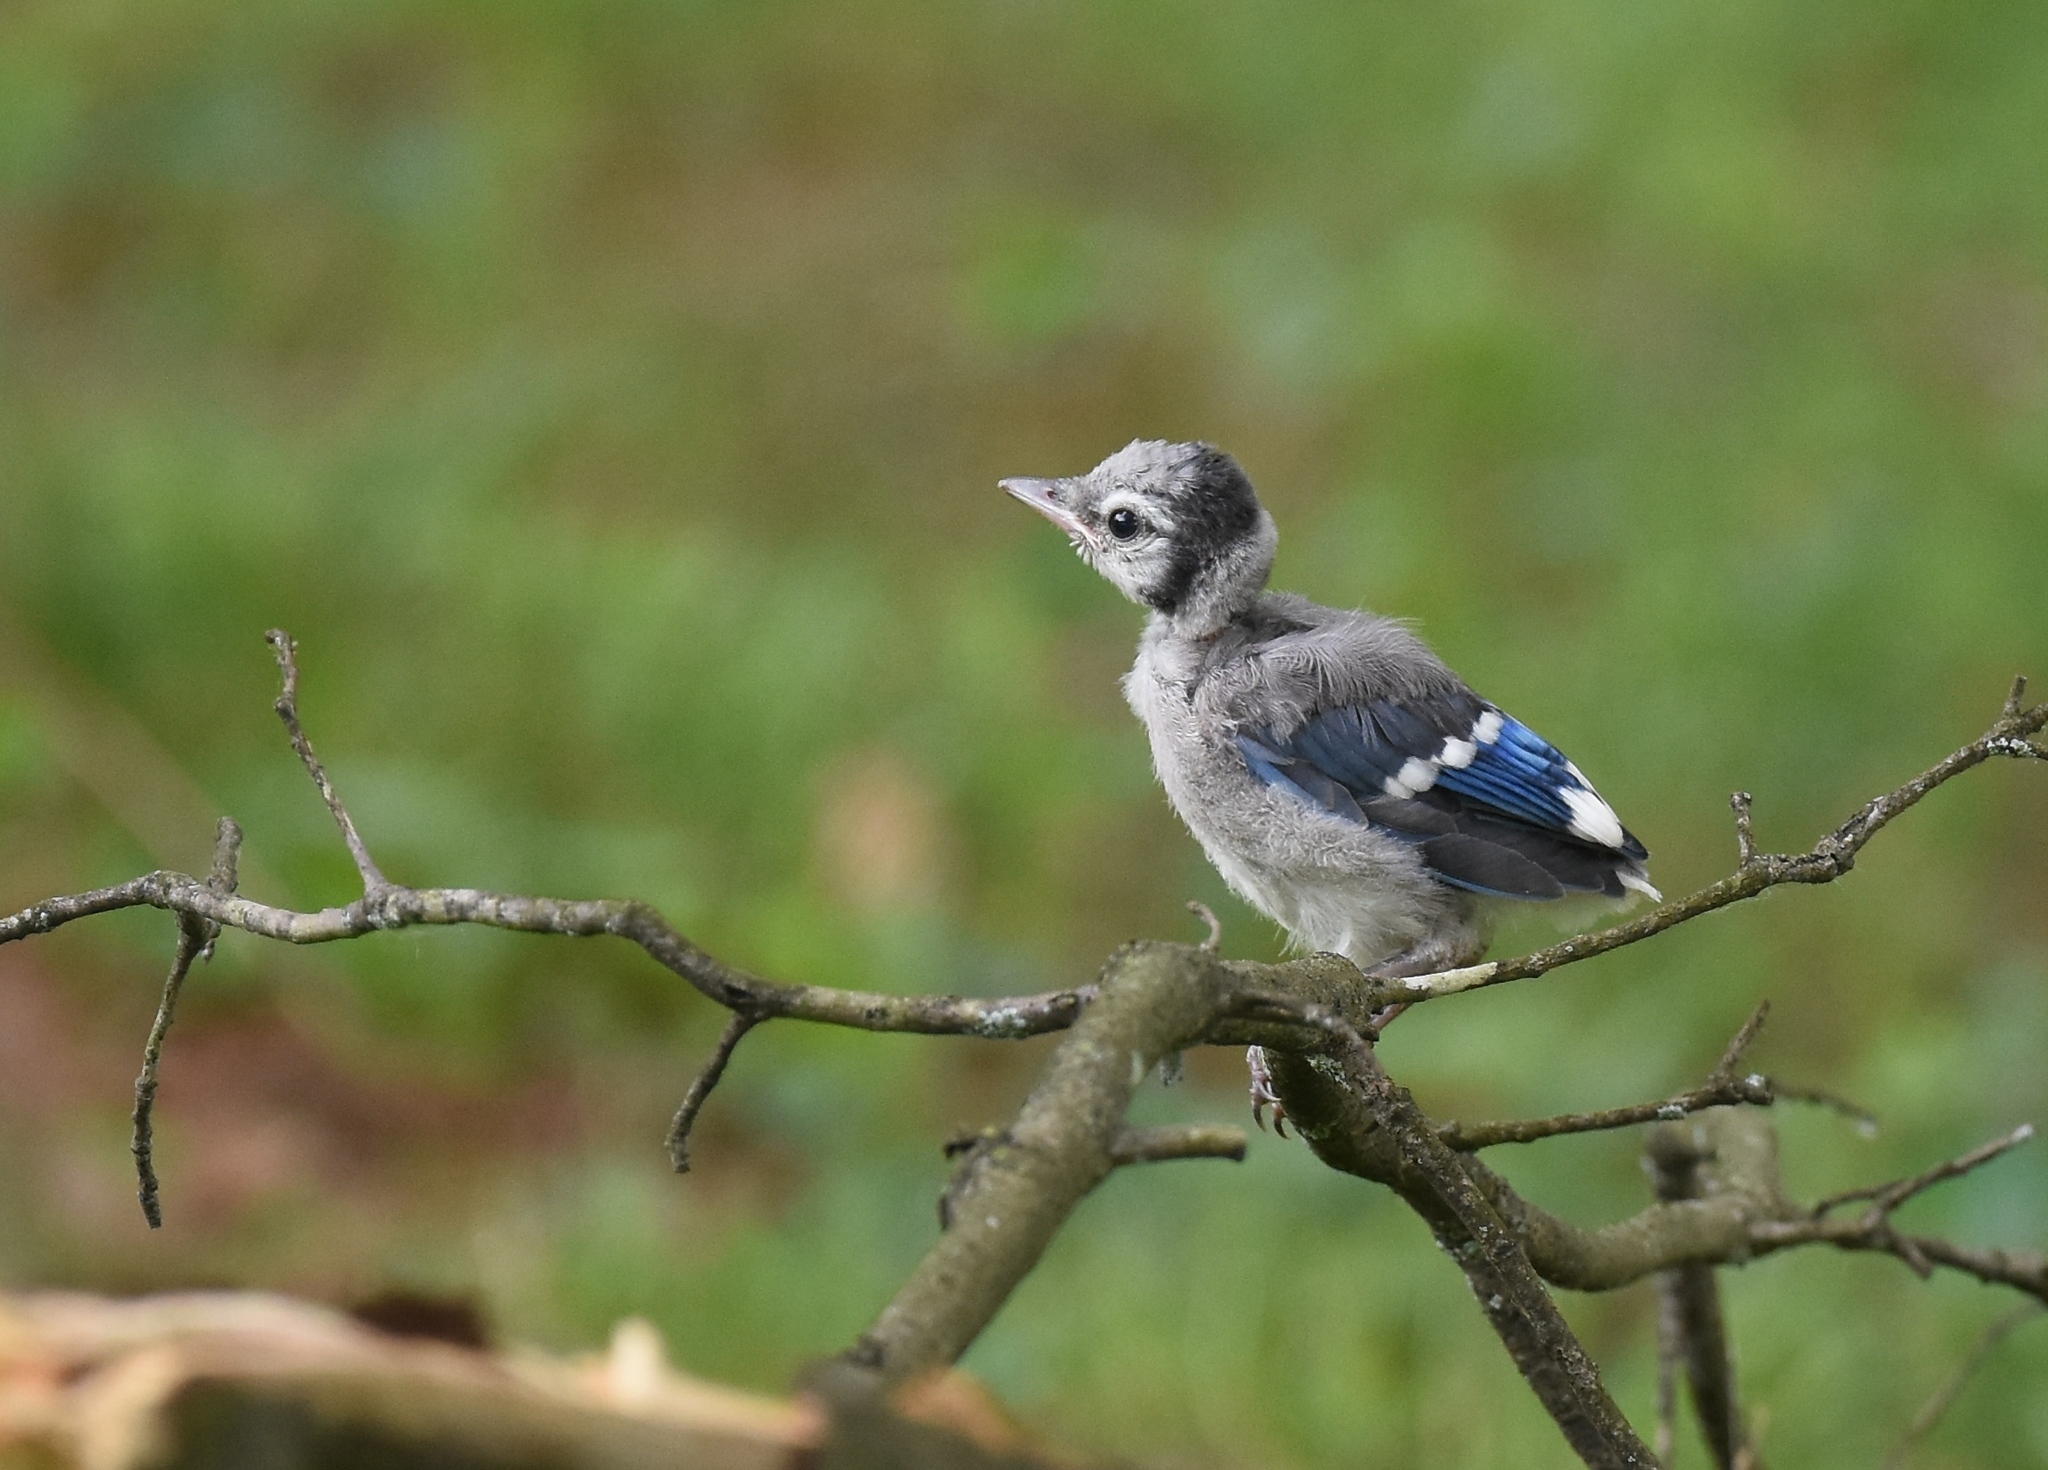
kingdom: Animalia
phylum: Chordata
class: Aves
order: Passeriformes
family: Corvidae
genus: Cyanocitta
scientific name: Cyanocitta cristata
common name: Blue jay
